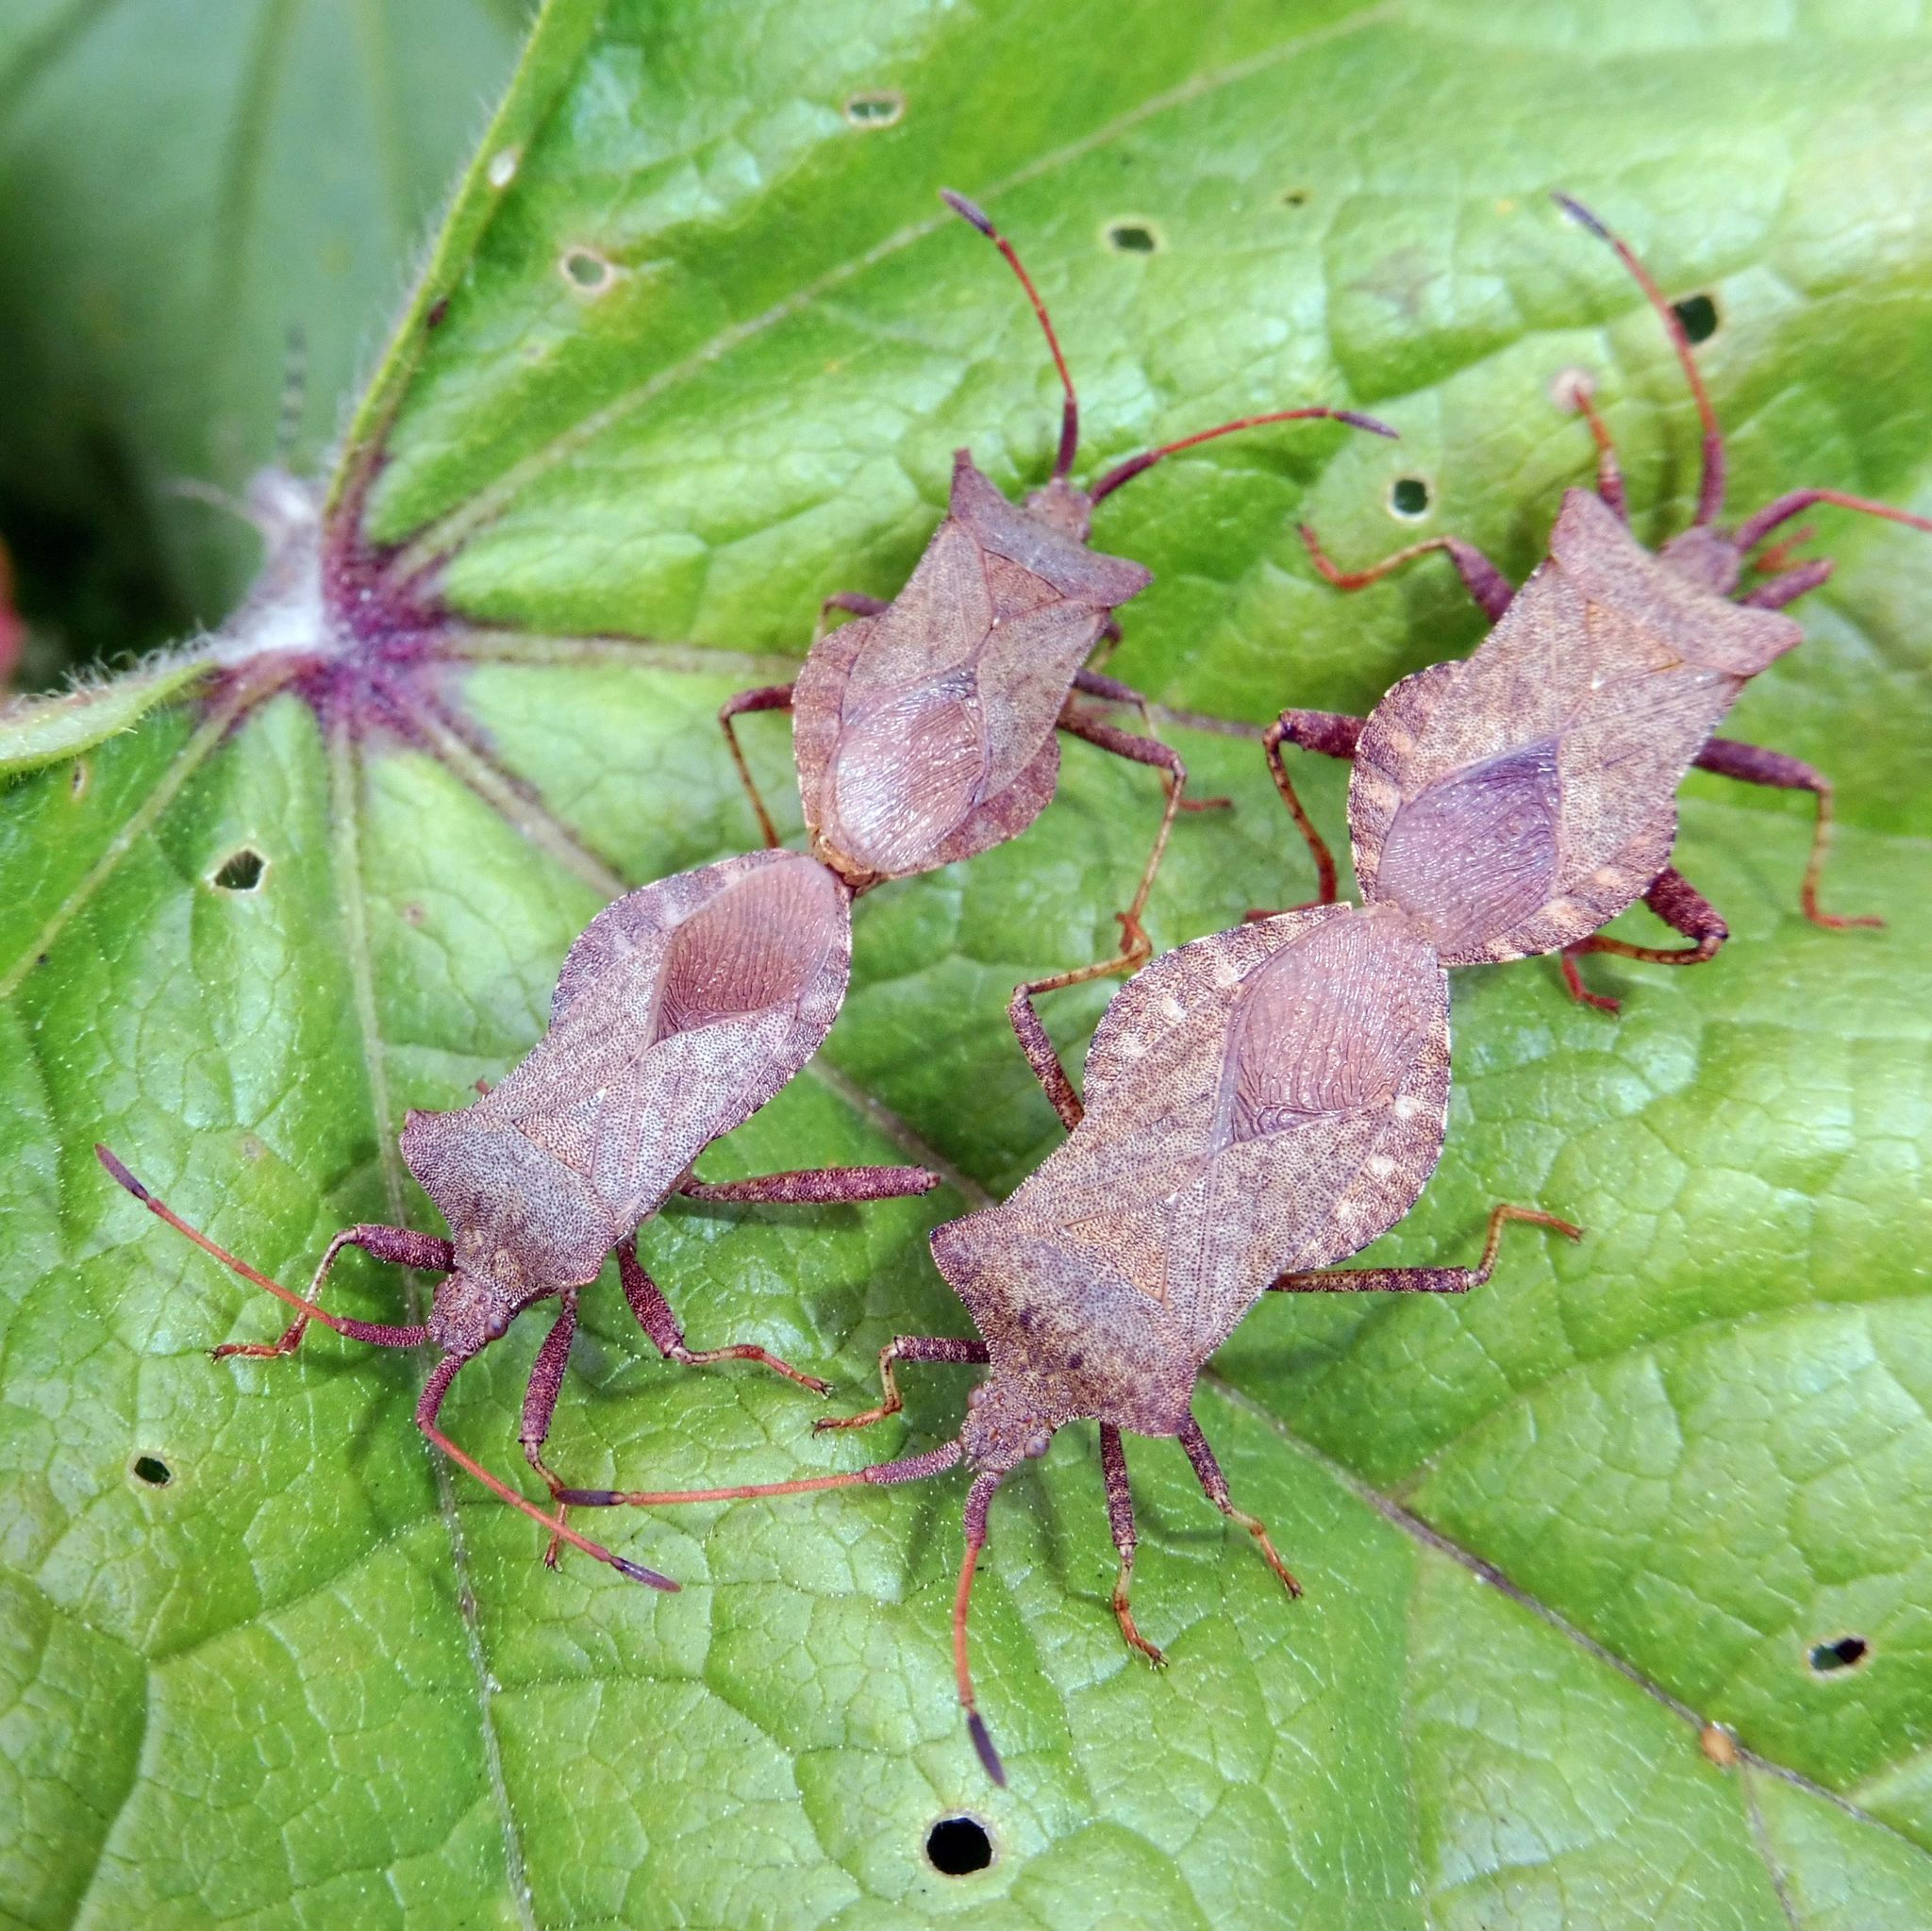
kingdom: Animalia
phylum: Arthropoda
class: Insecta
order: Hemiptera
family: Coreidae
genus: Coreus
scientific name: Coreus marginatus
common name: Dock bug
